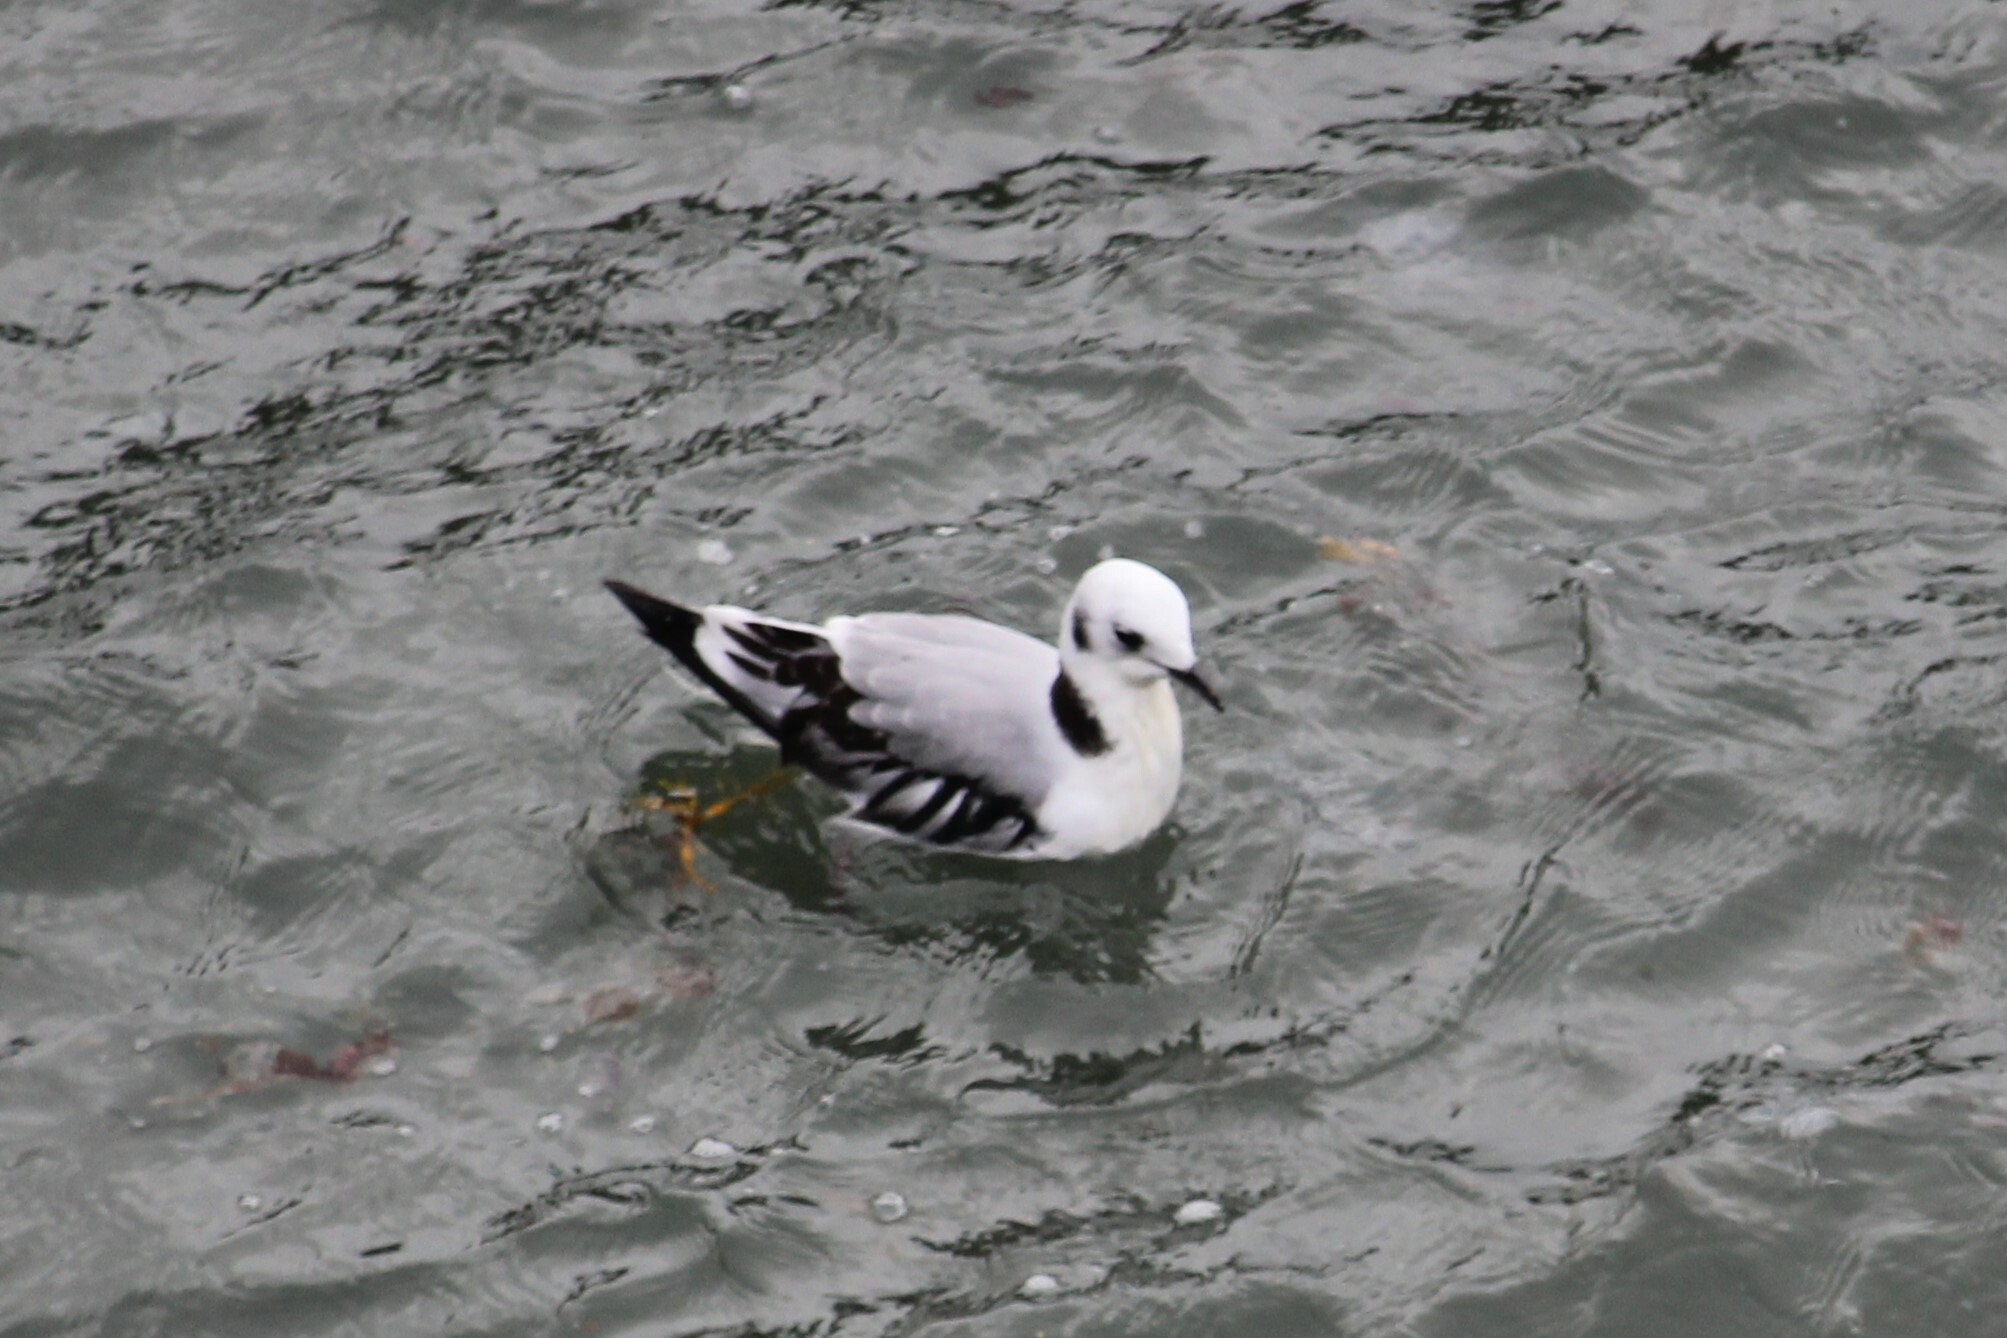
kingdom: Animalia
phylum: Chordata
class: Aves
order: Charadriiformes
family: Laridae
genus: Rissa
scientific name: Rissa tridactyla
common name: Black-legged kittiwake
